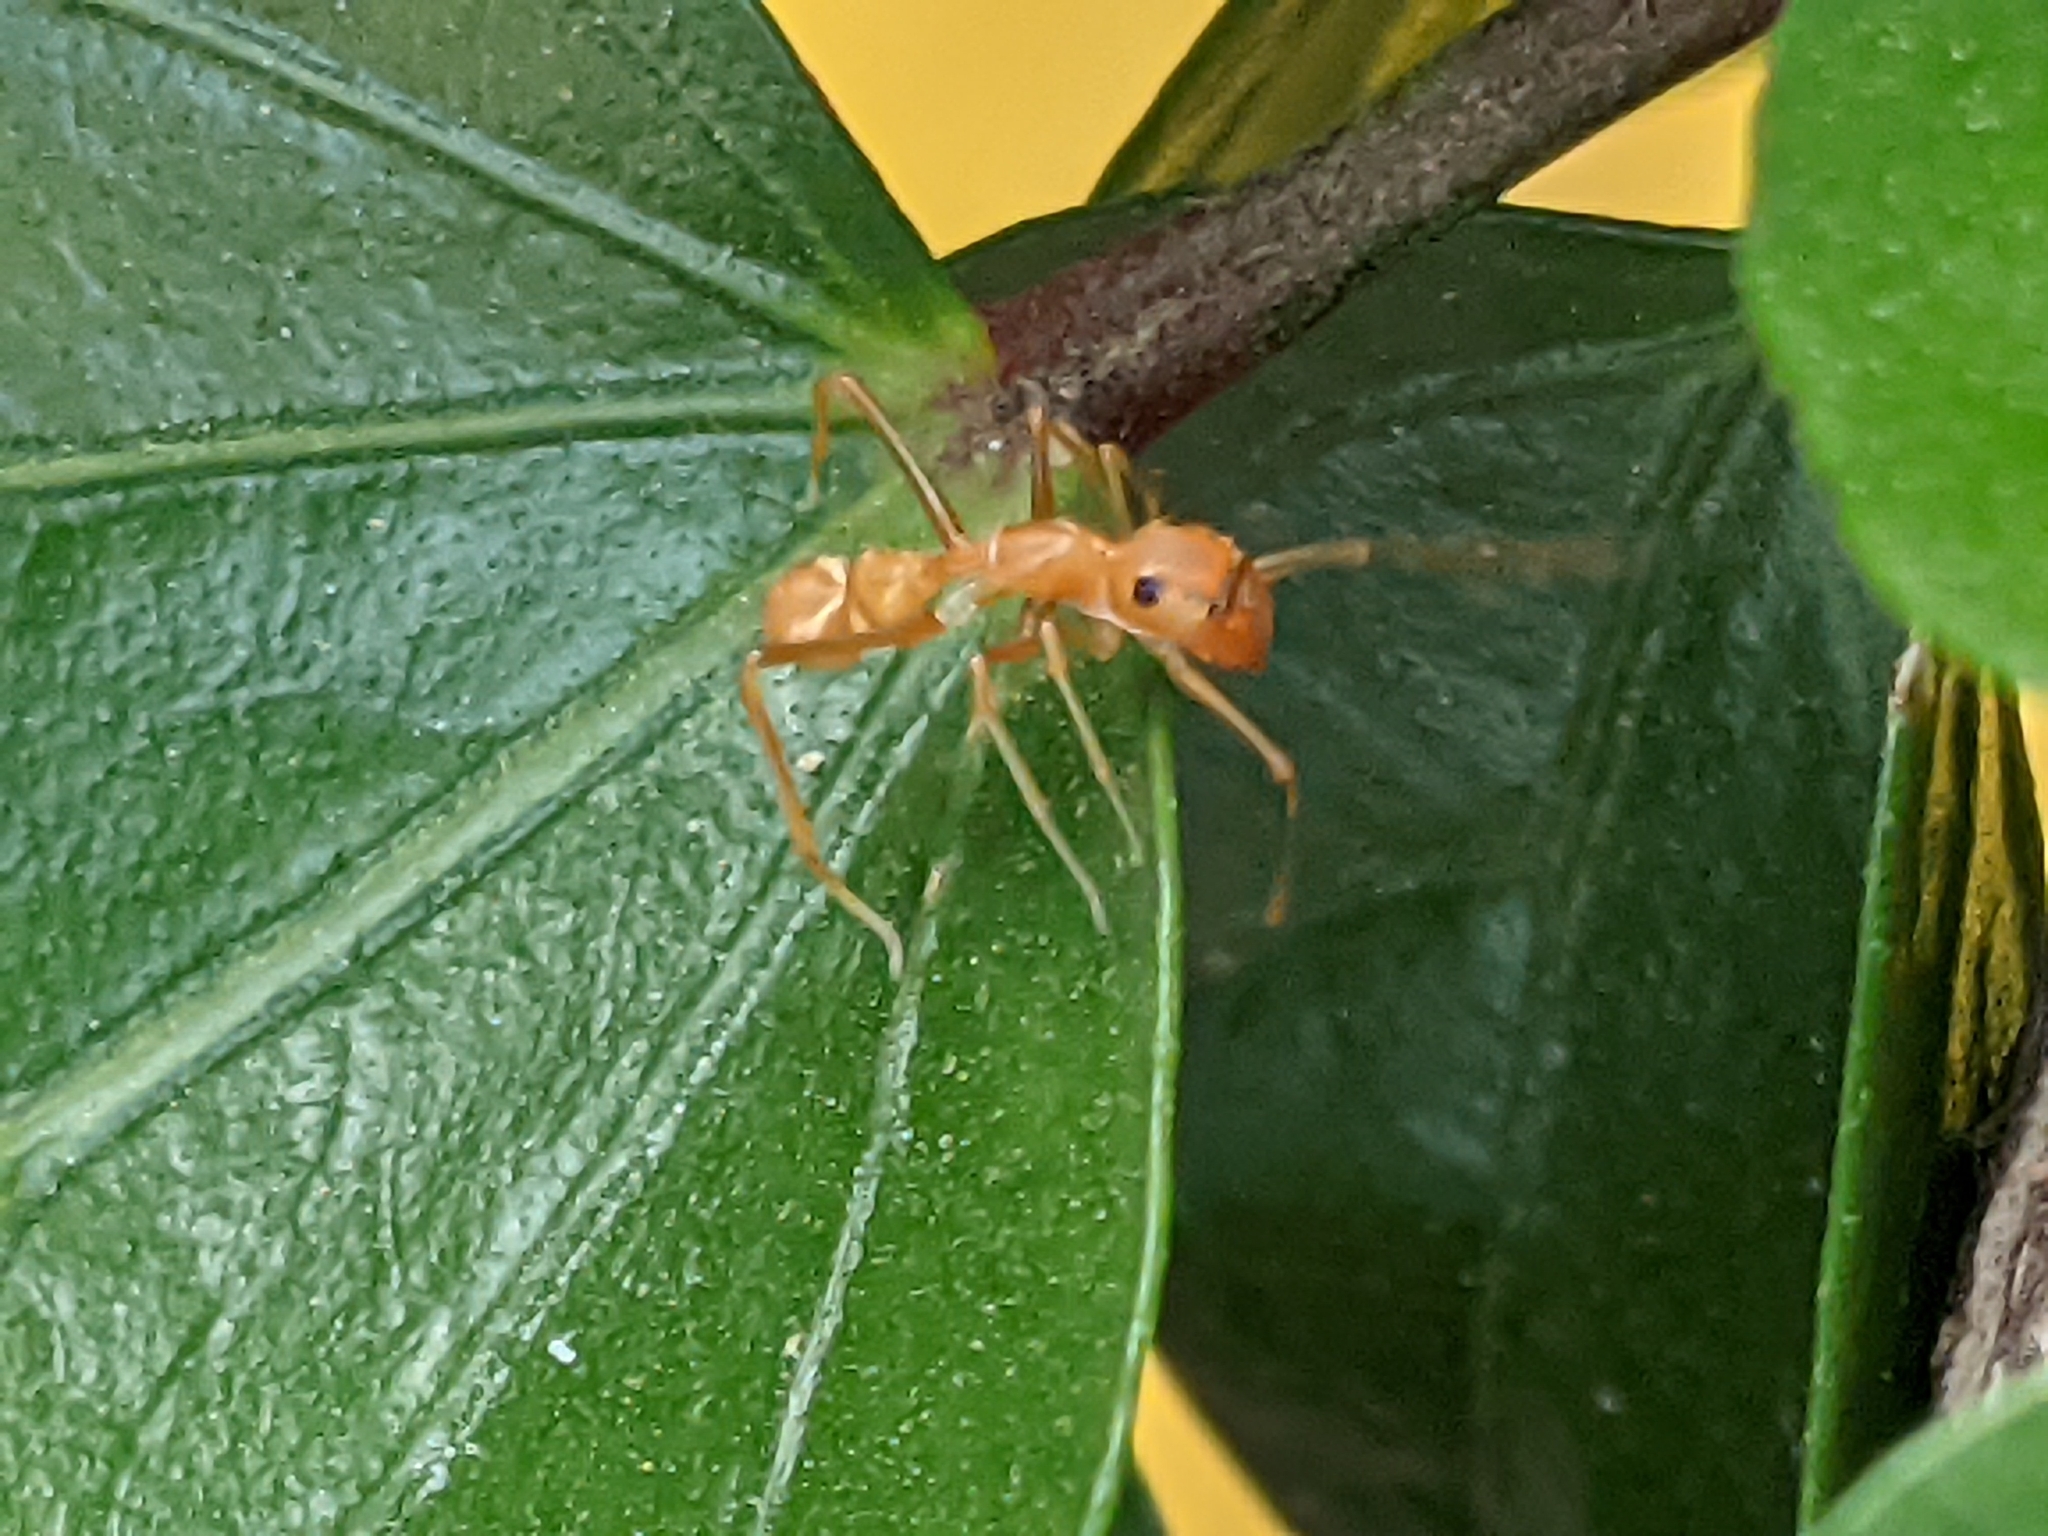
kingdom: Animalia
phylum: Arthropoda
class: Arachnida
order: Araneae
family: Salticidae
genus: Myrmaplata
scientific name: Myrmaplata plataleoides
